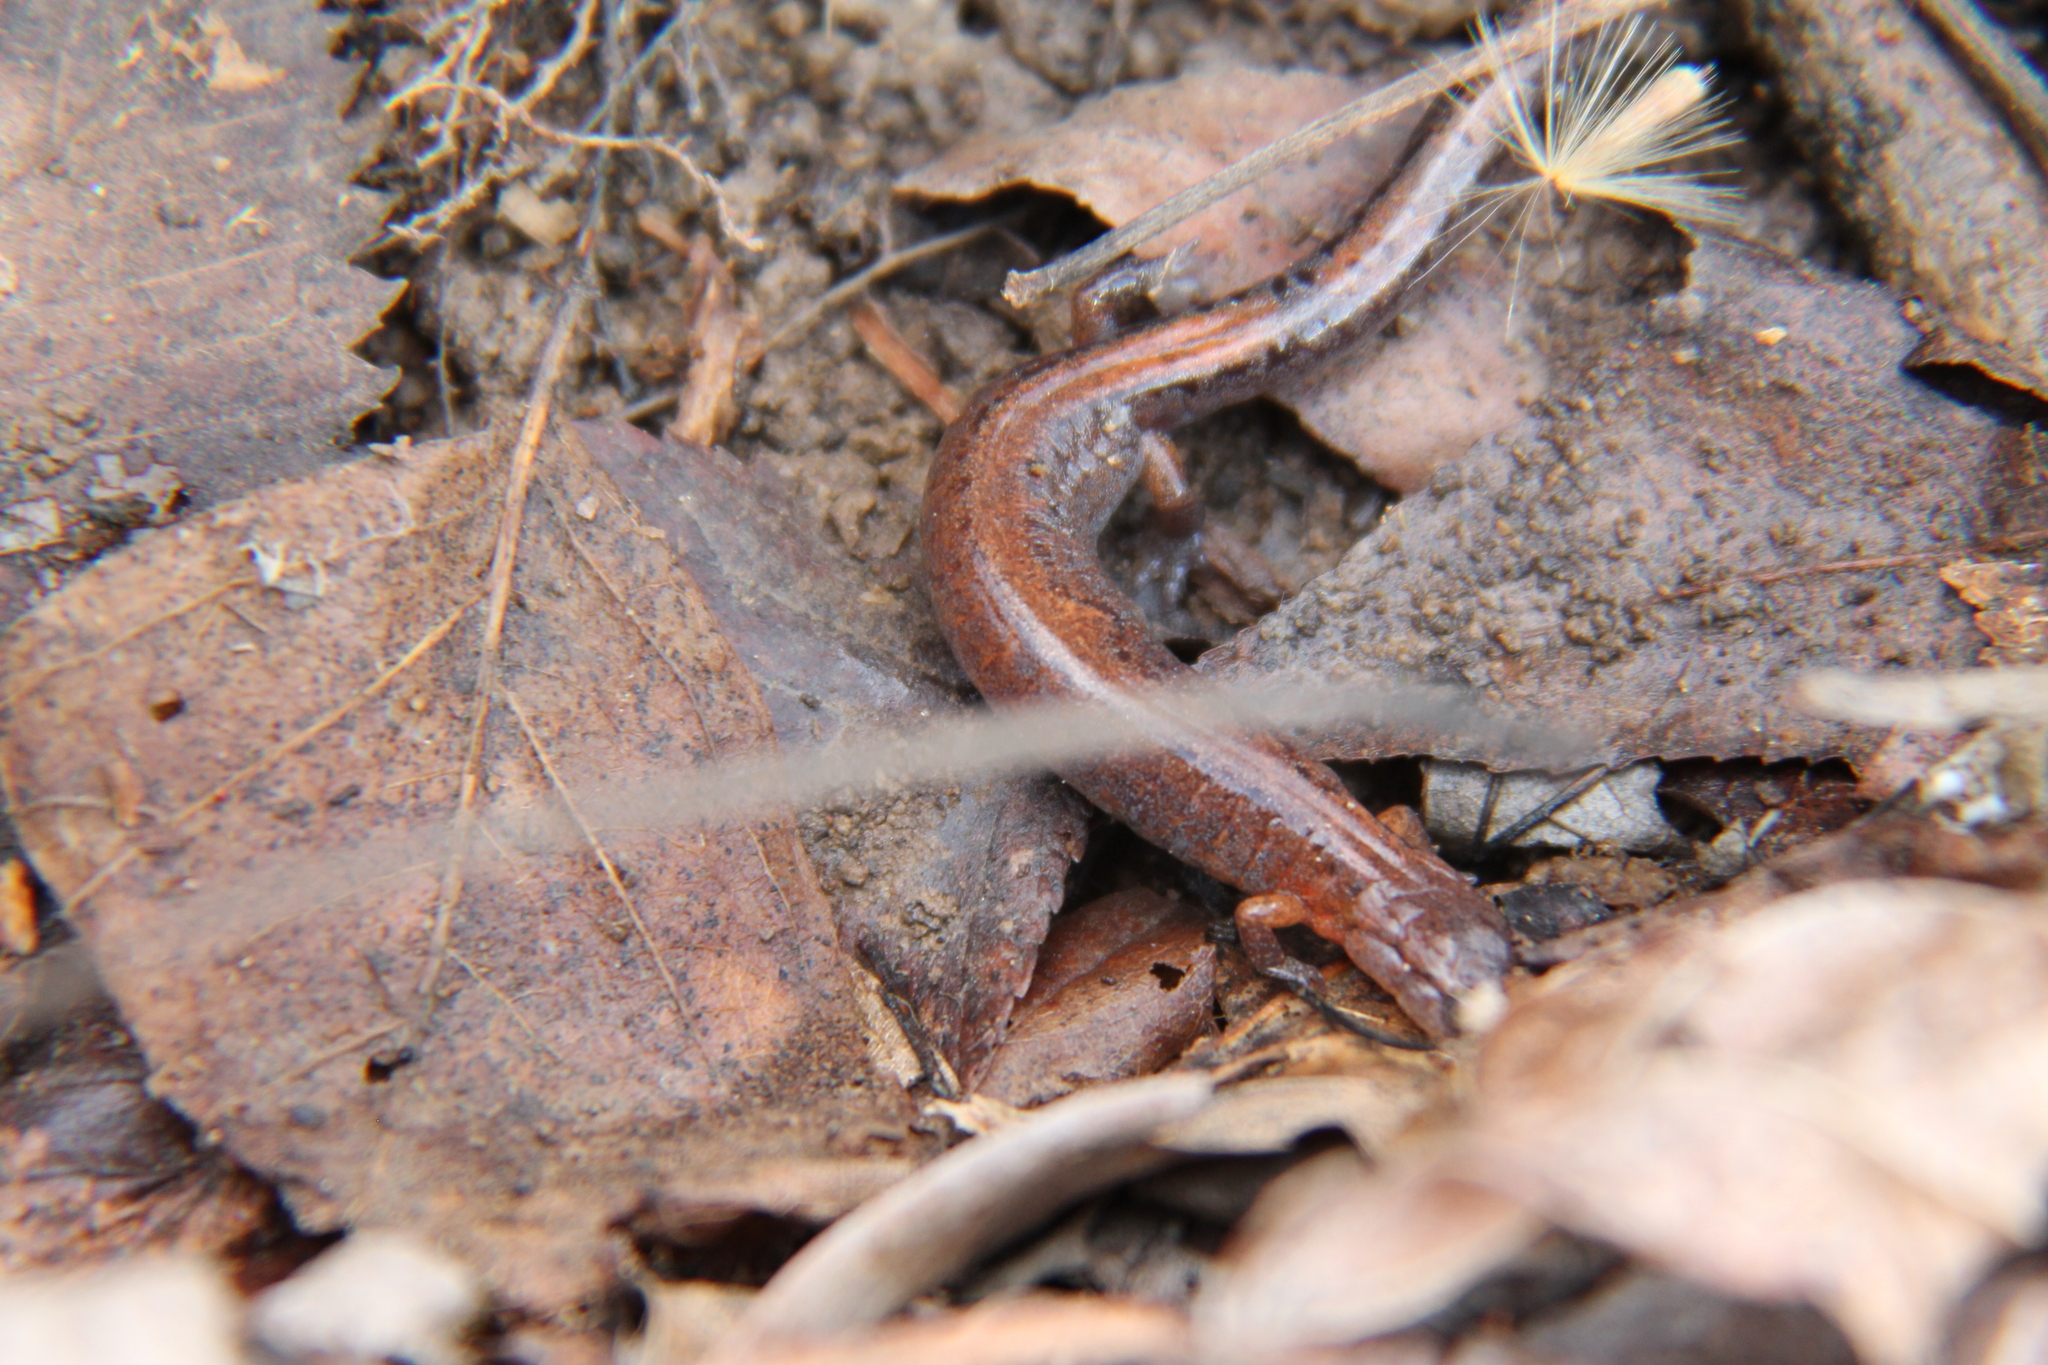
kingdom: Animalia
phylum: Chordata
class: Amphibia
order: Caudata
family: Plethodontidae
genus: Plethodon
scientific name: Plethodon dorsalis
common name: Northern zigzag salamander
